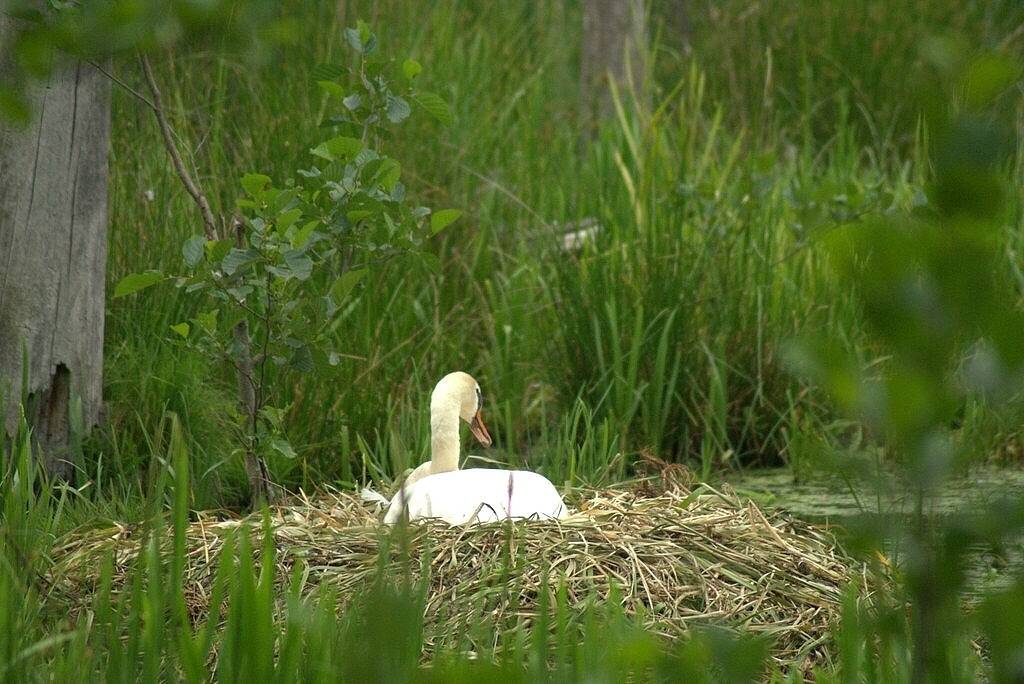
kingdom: Animalia
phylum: Chordata
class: Aves
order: Anseriformes
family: Anatidae
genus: Cygnus
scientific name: Cygnus olor
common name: Mute swan
